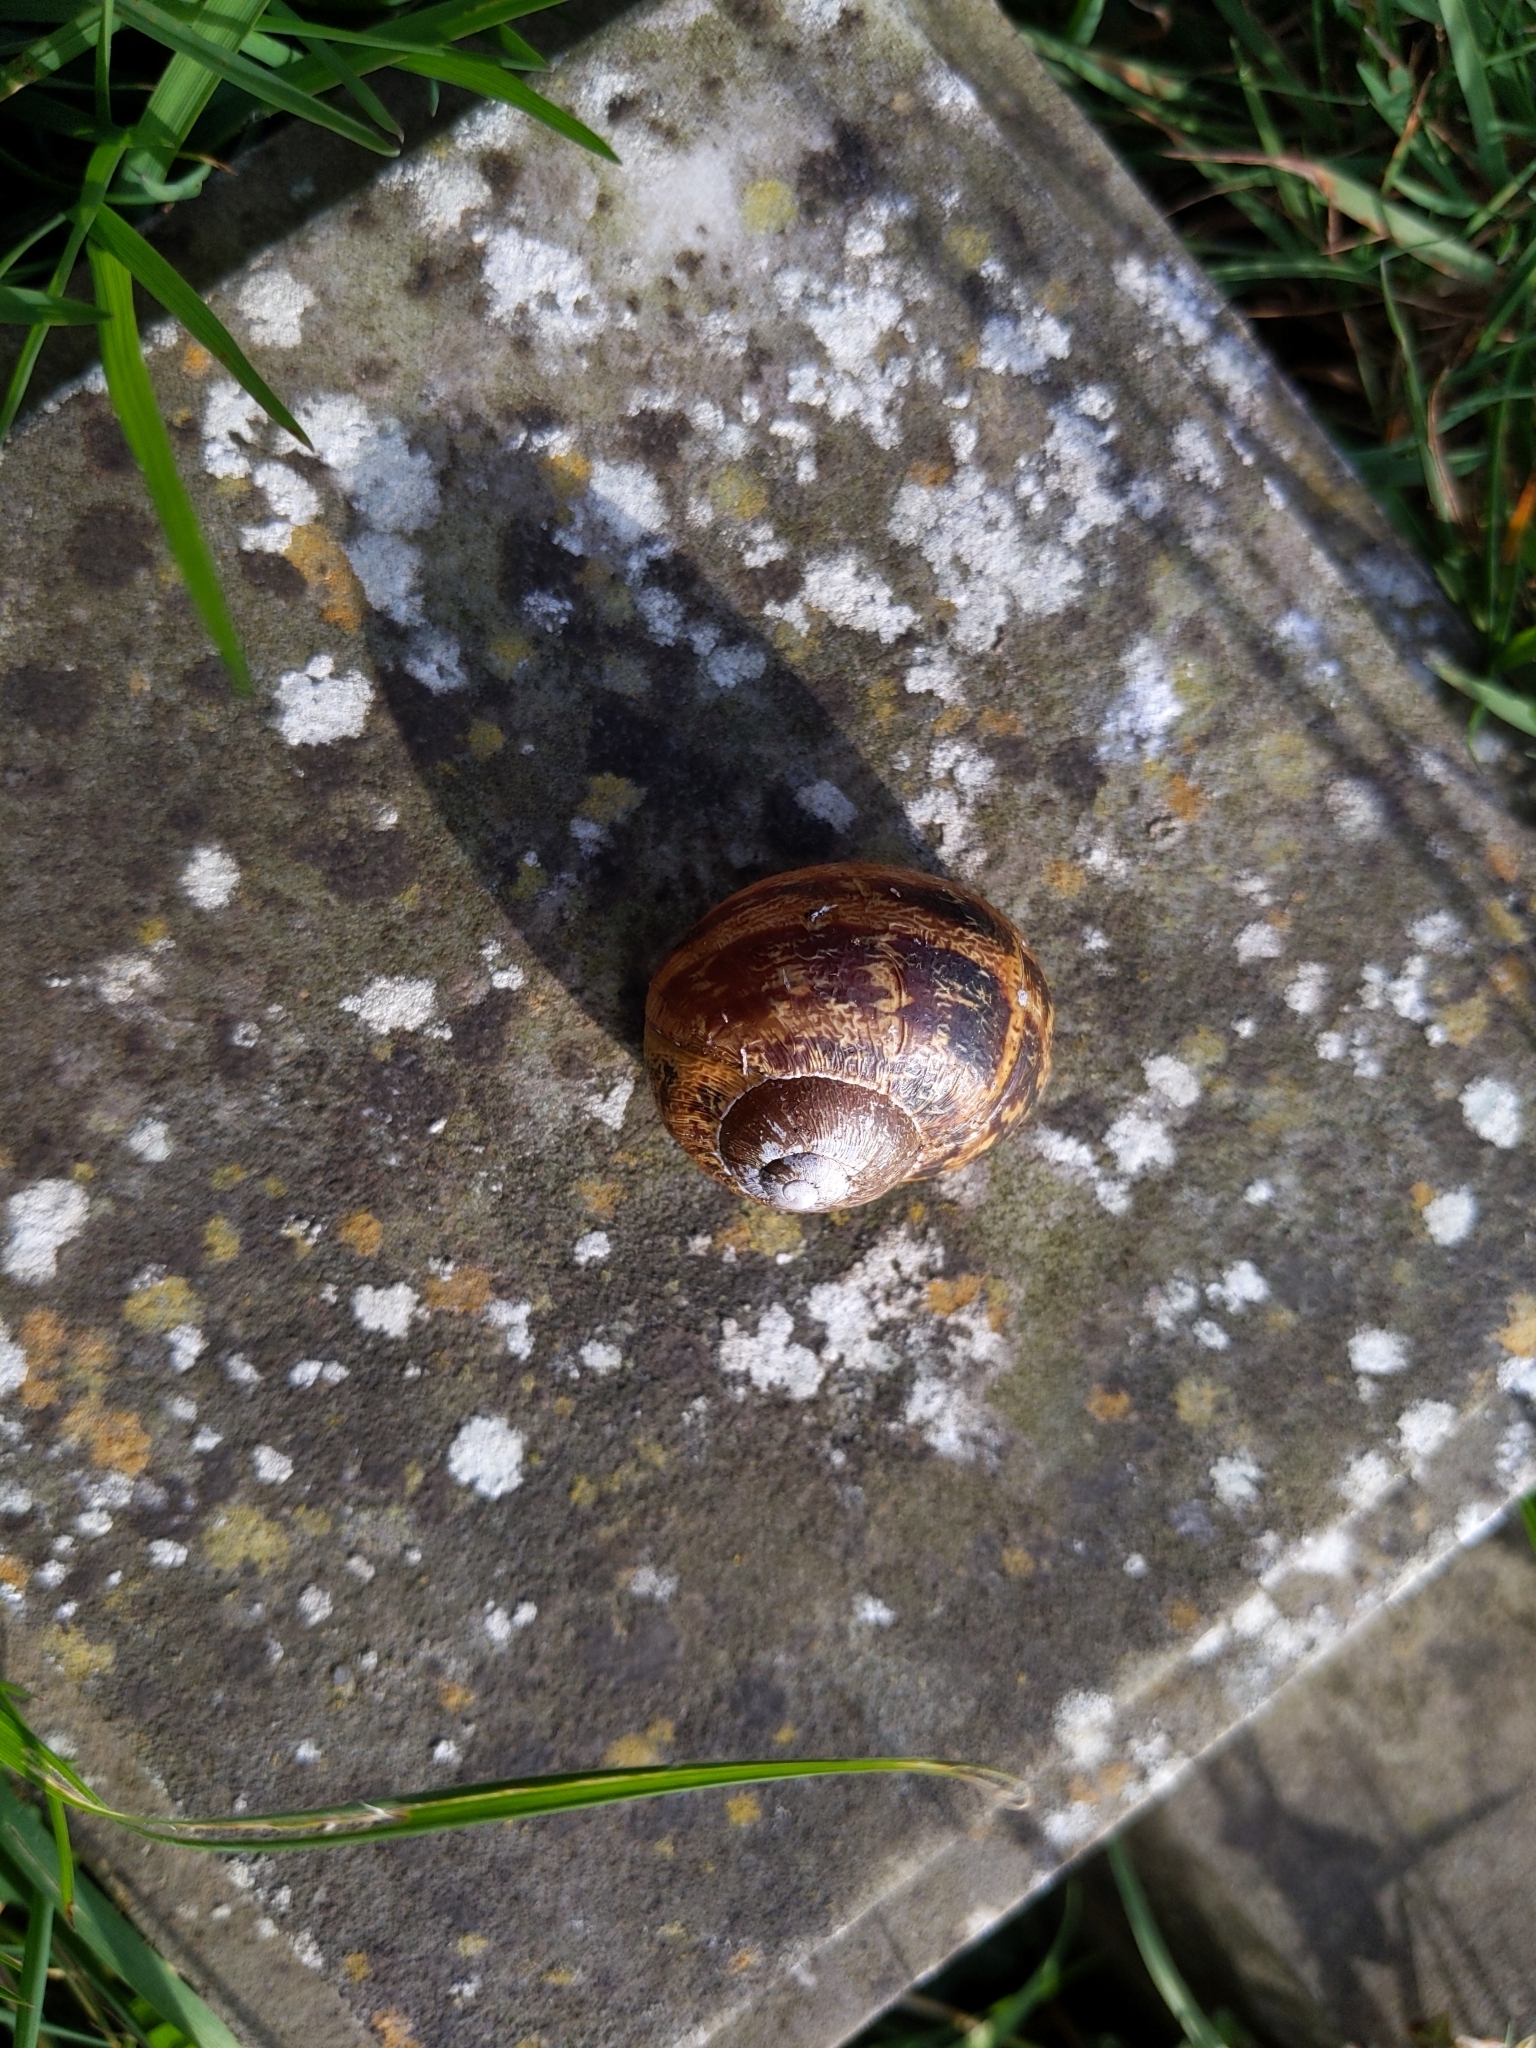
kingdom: Animalia
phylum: Mollusca
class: Gastropoda
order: Stylommatophora
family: Helicidae
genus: Cornu
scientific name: Cornu aspersum
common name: Brown garden snail
